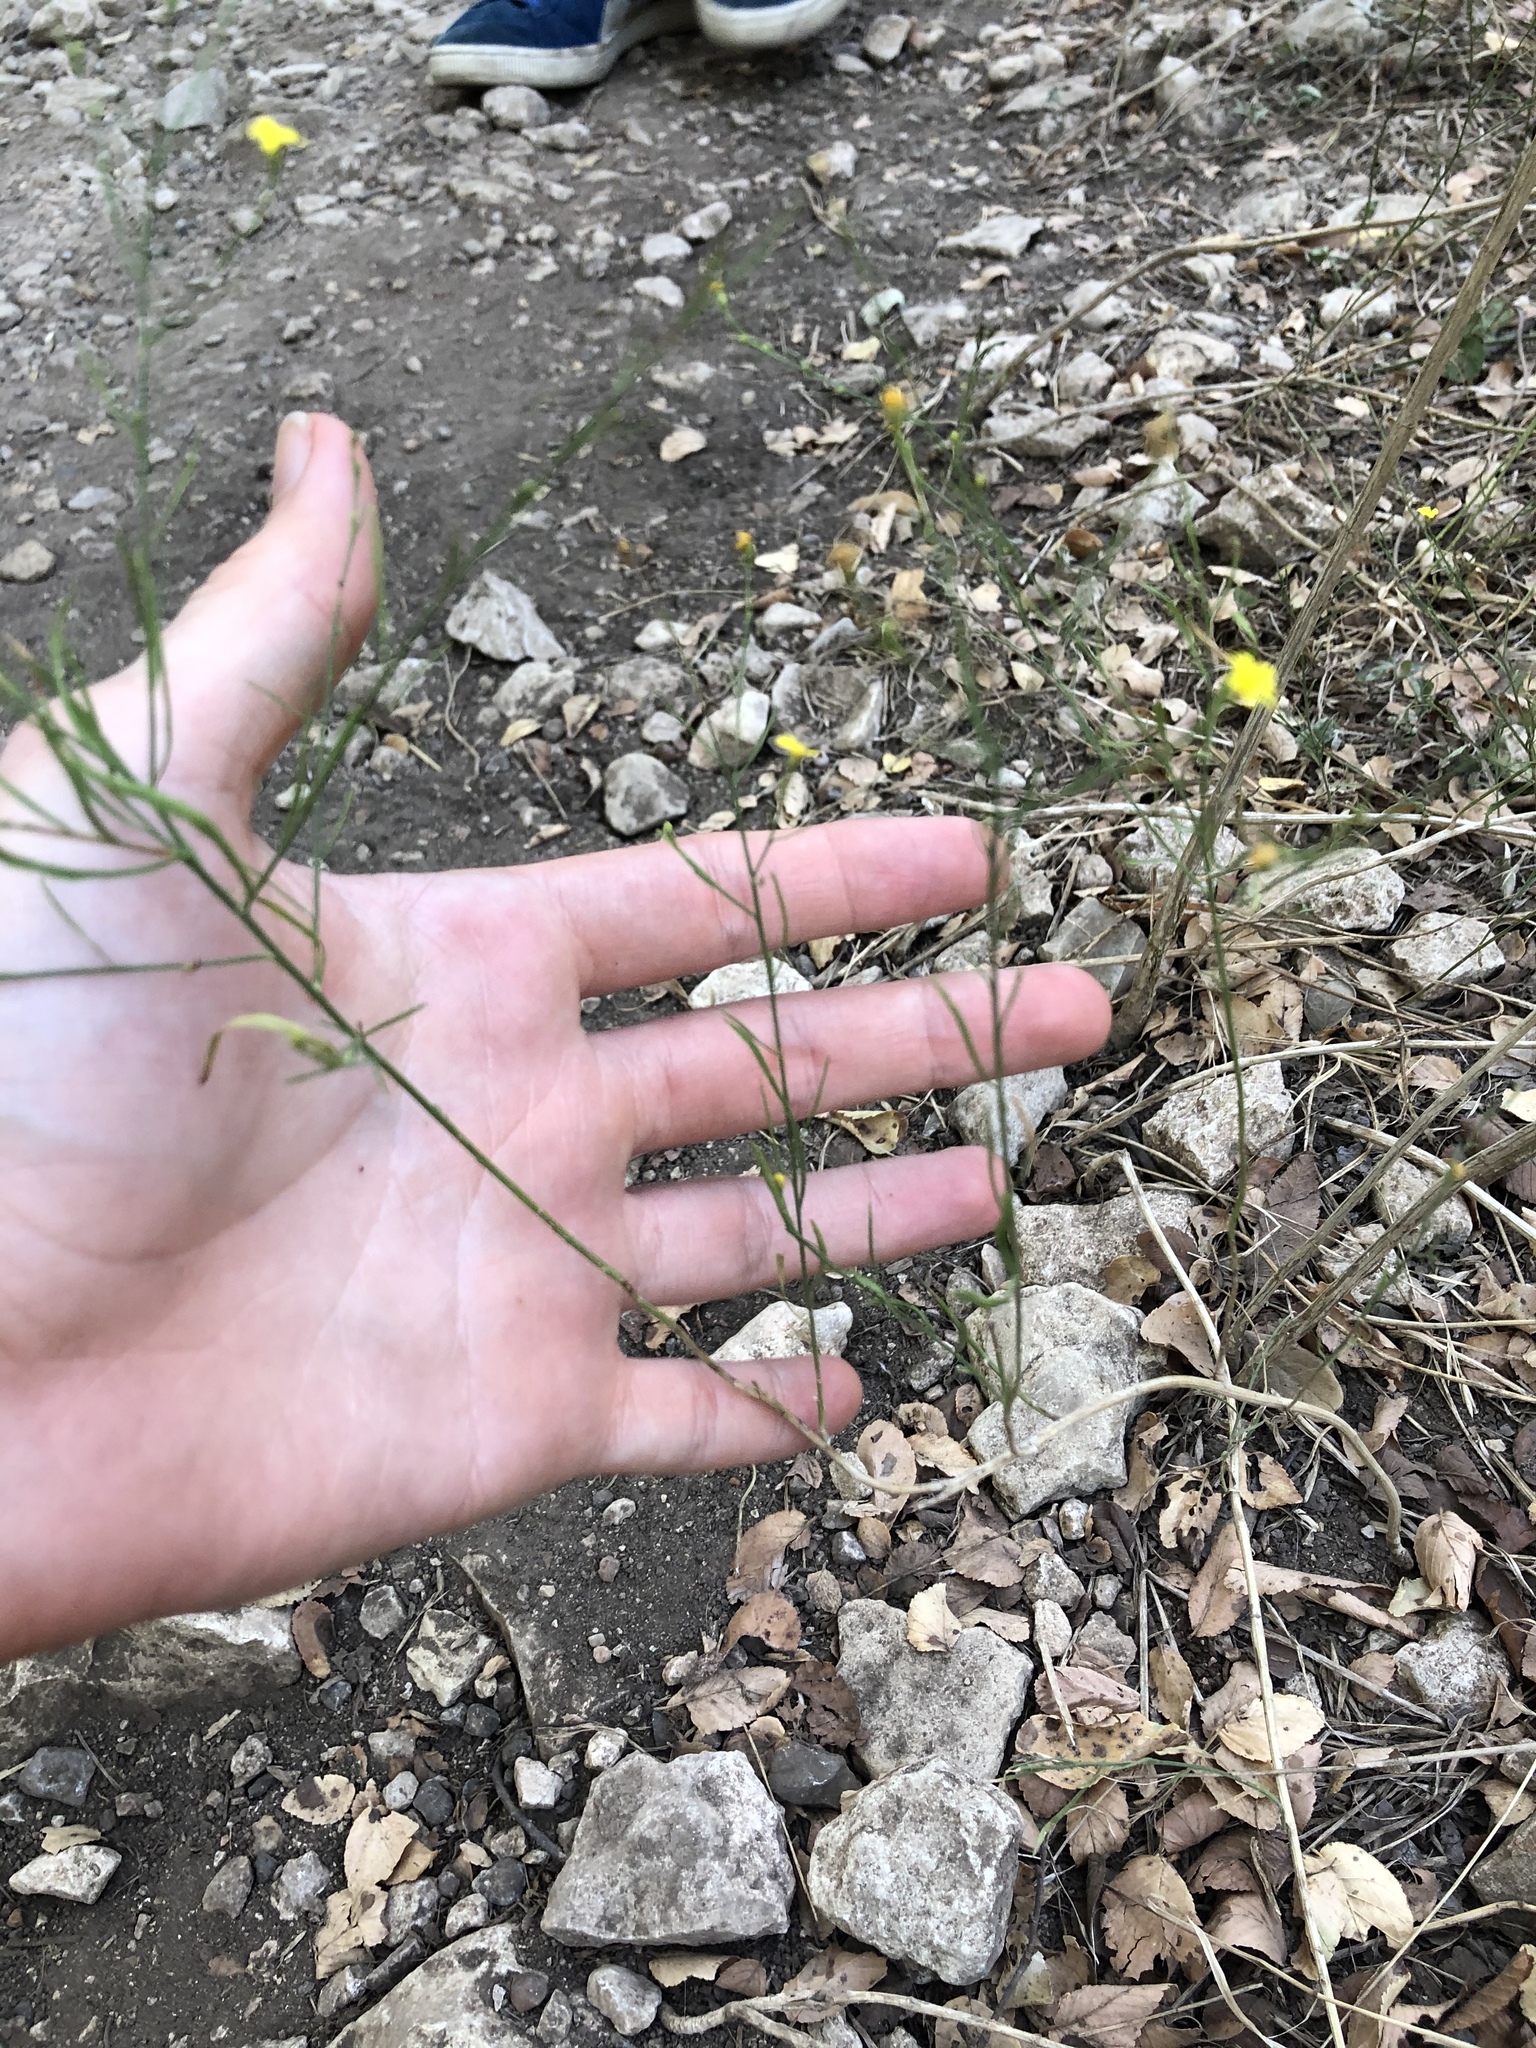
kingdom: Plantae
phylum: Tracheophyta
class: Magnoliopsida
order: Asterales
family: Asteraceae
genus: Gutierrezia
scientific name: Gutierrezia texana
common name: Texas snakeweed
